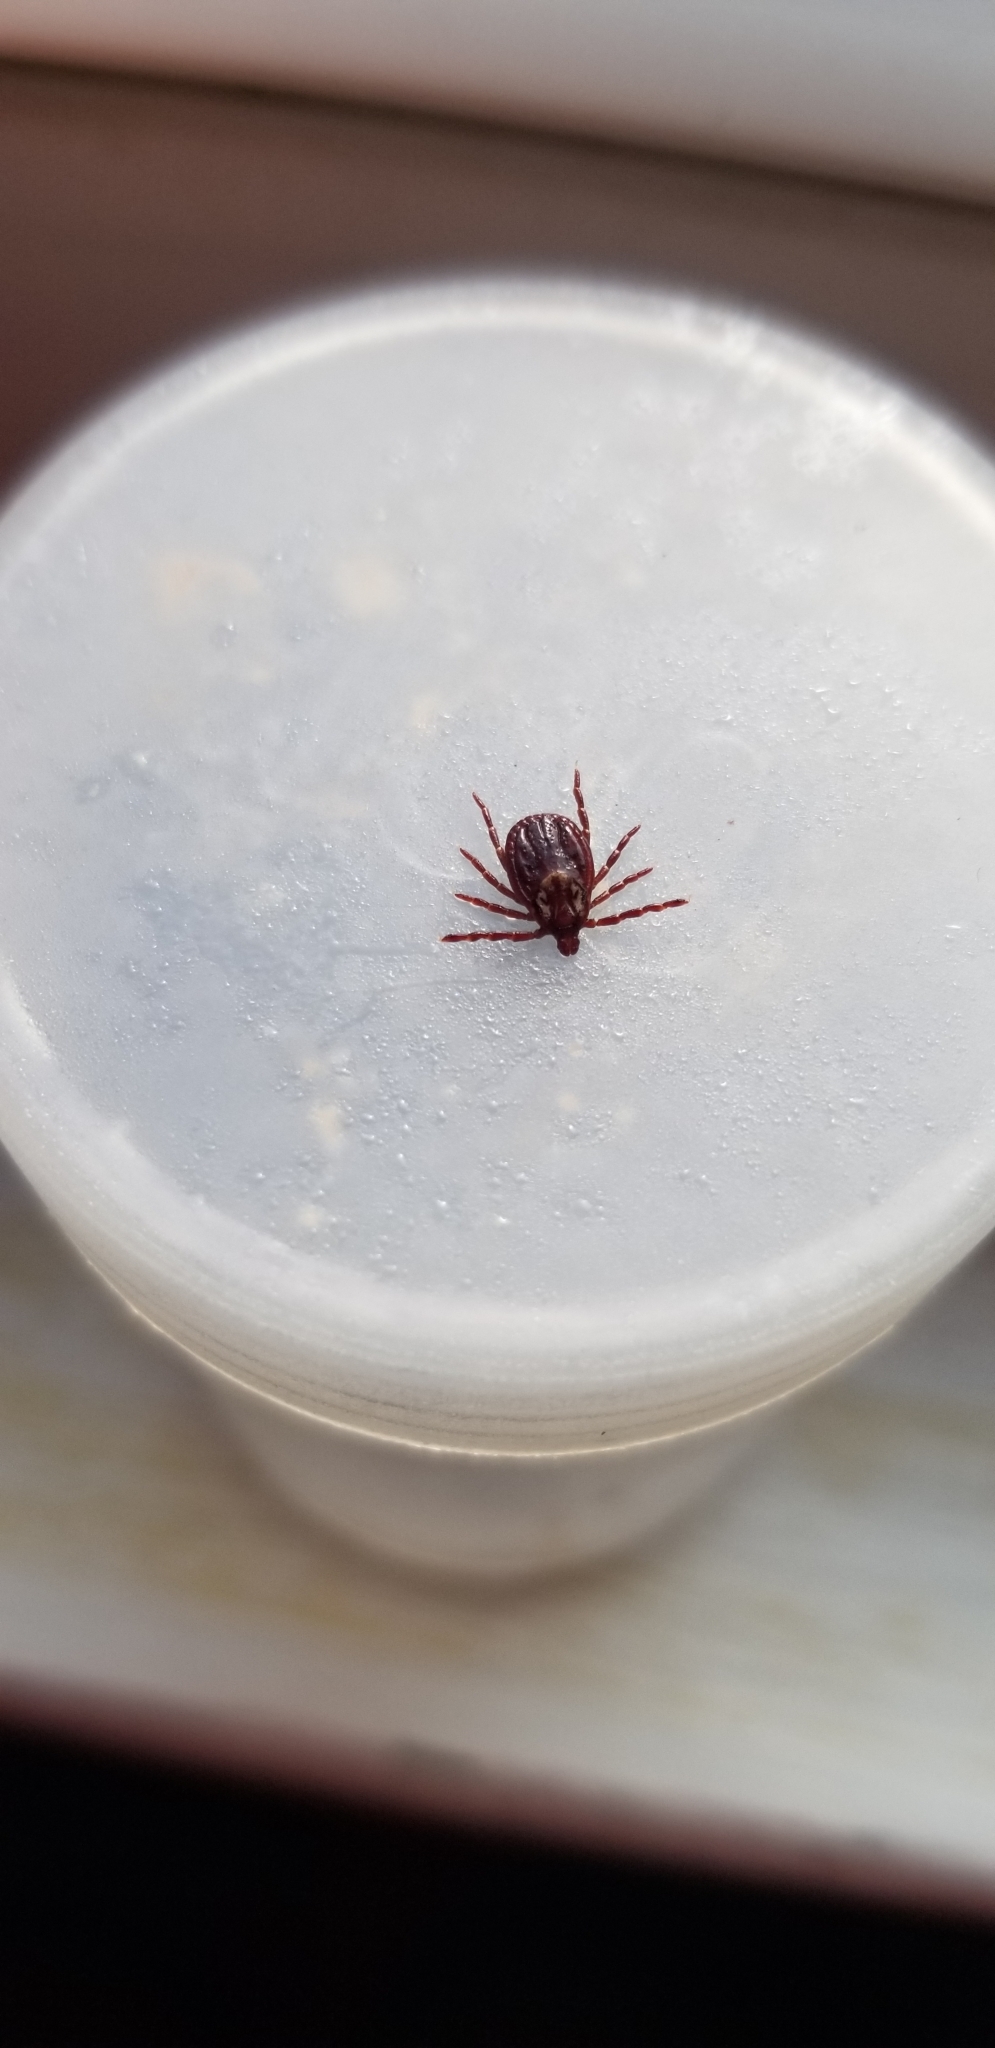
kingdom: Animalia
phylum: Arthropoda
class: Arachnida
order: Ixodida
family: Ixodidae
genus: Dermacentor
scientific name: Dermacentor variabilis
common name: American dog tick
